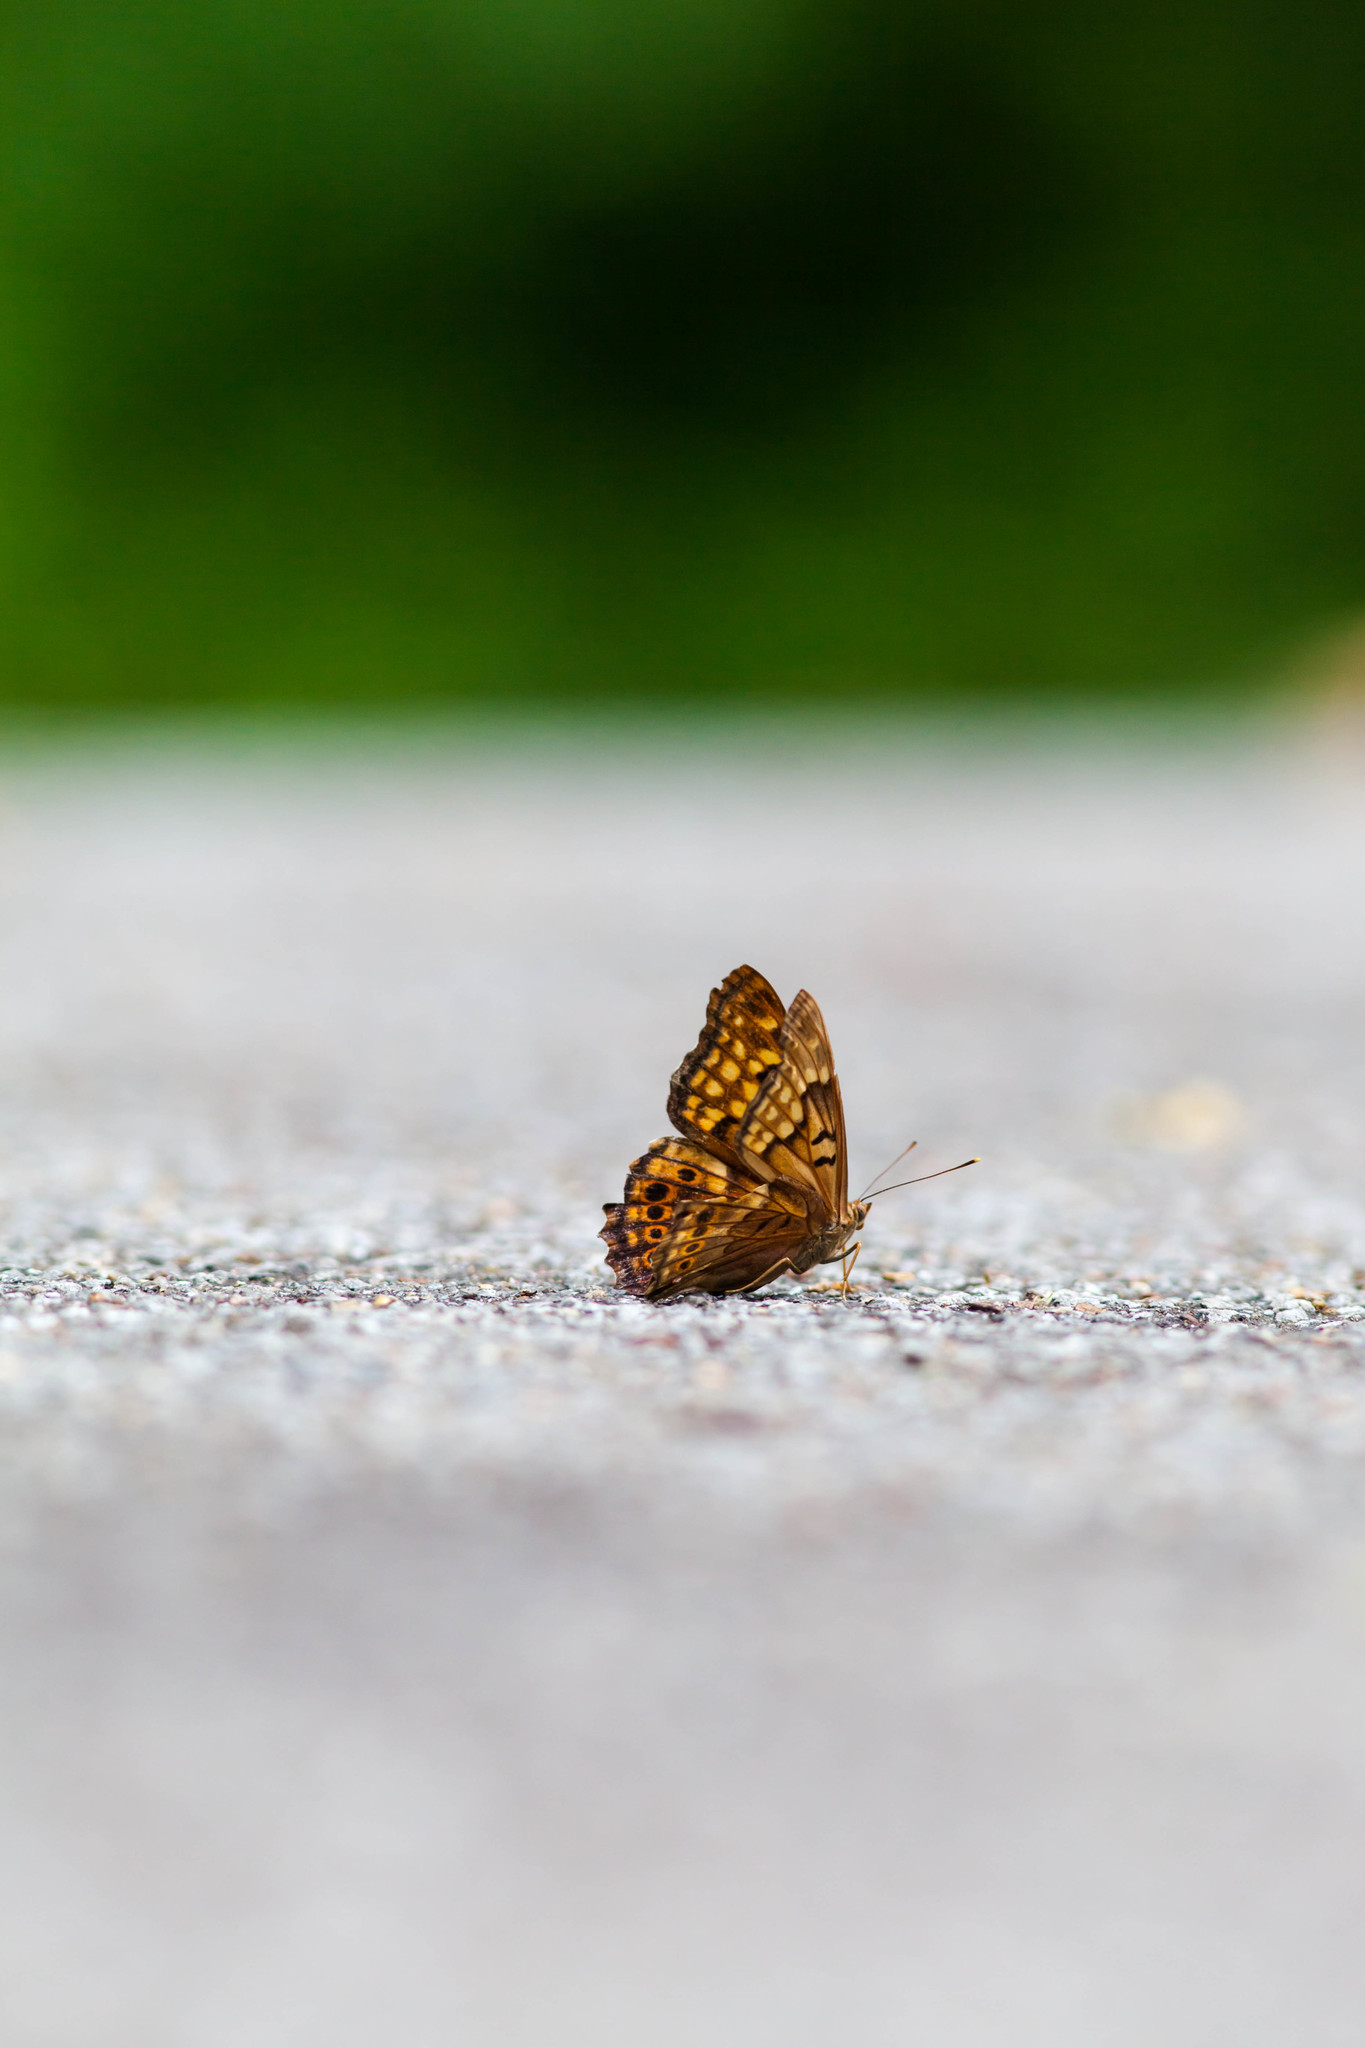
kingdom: Animalia
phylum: Arthropoda
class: Insecta
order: Lepidoptera
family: Nymphalidae
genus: Asterocampa
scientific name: Asterocampa clyton
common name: Tawny emperor
